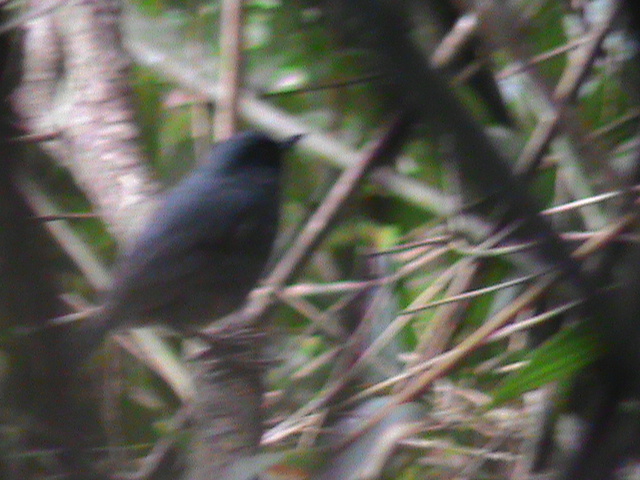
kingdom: Animalia
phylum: Chordata
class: Aves
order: Passeriformes
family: Muscicapidae
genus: Eumyias
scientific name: Eumyias albicaudatus
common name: Nilgiri flycatcher
